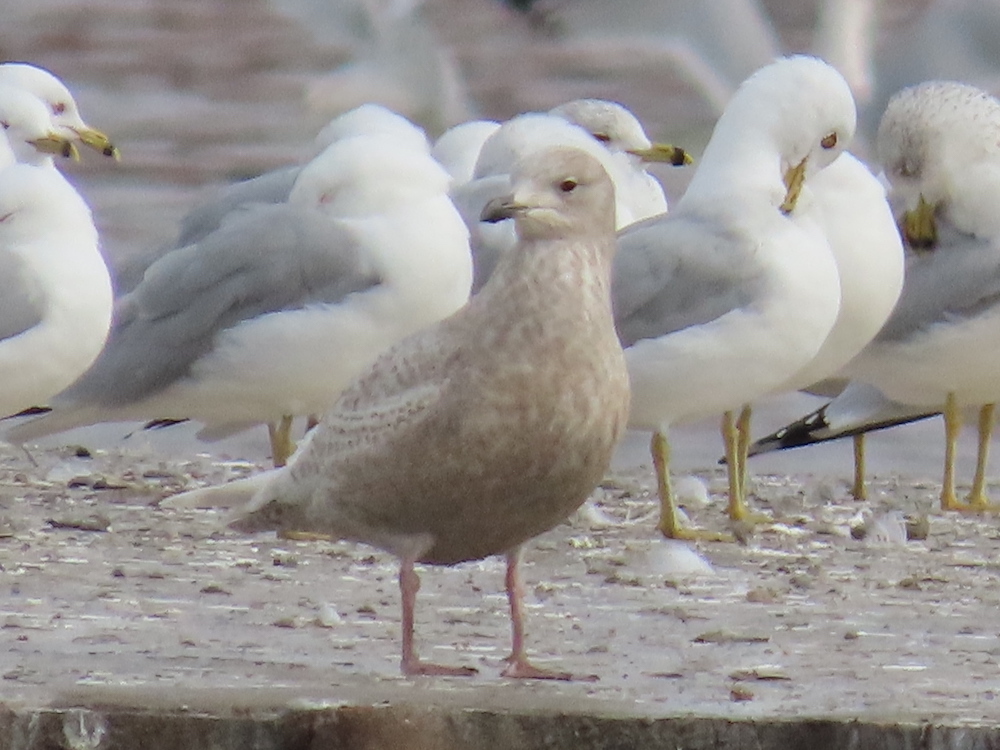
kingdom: Animalia
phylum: Chordata
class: Aves
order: Charadriiformes
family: Laridae
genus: Larus
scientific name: Larus glaucoides
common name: Iceland gull
